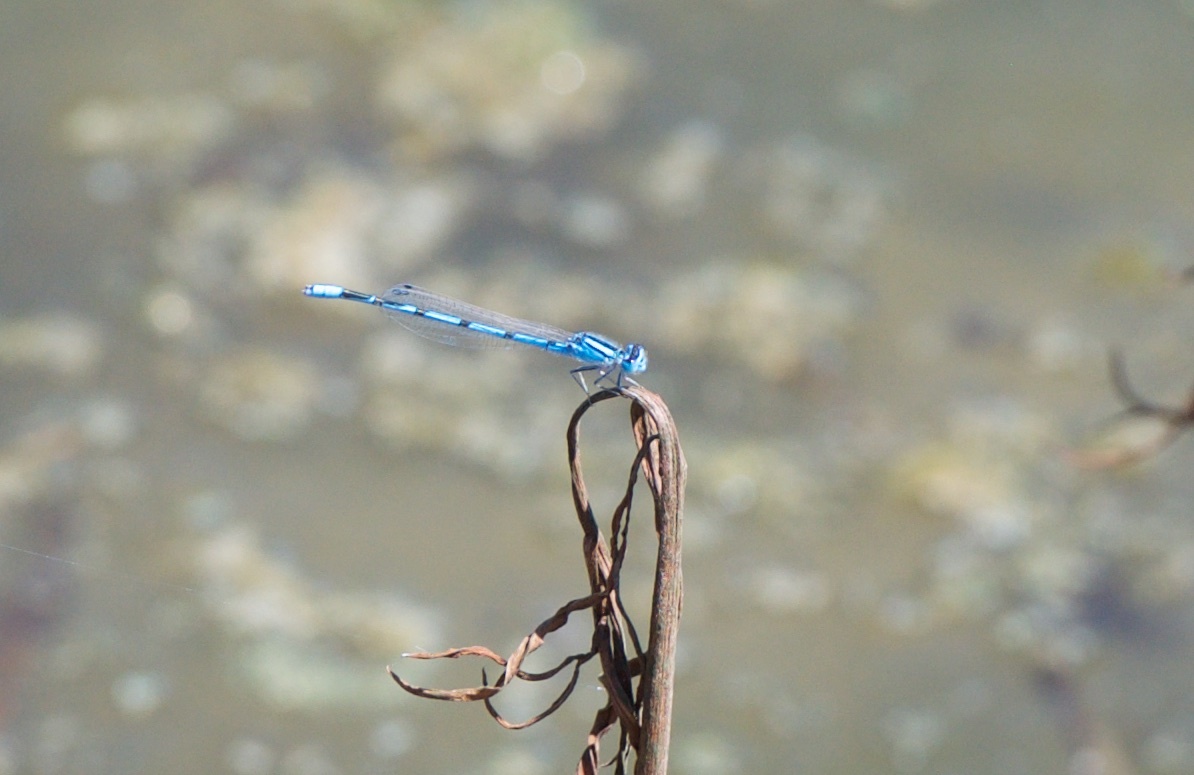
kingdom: Animalia
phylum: Arthropoda
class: Insecta
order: Odonata
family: Coenagrionidae
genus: Enallagma
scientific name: Enallagma civile
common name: Damselfly
